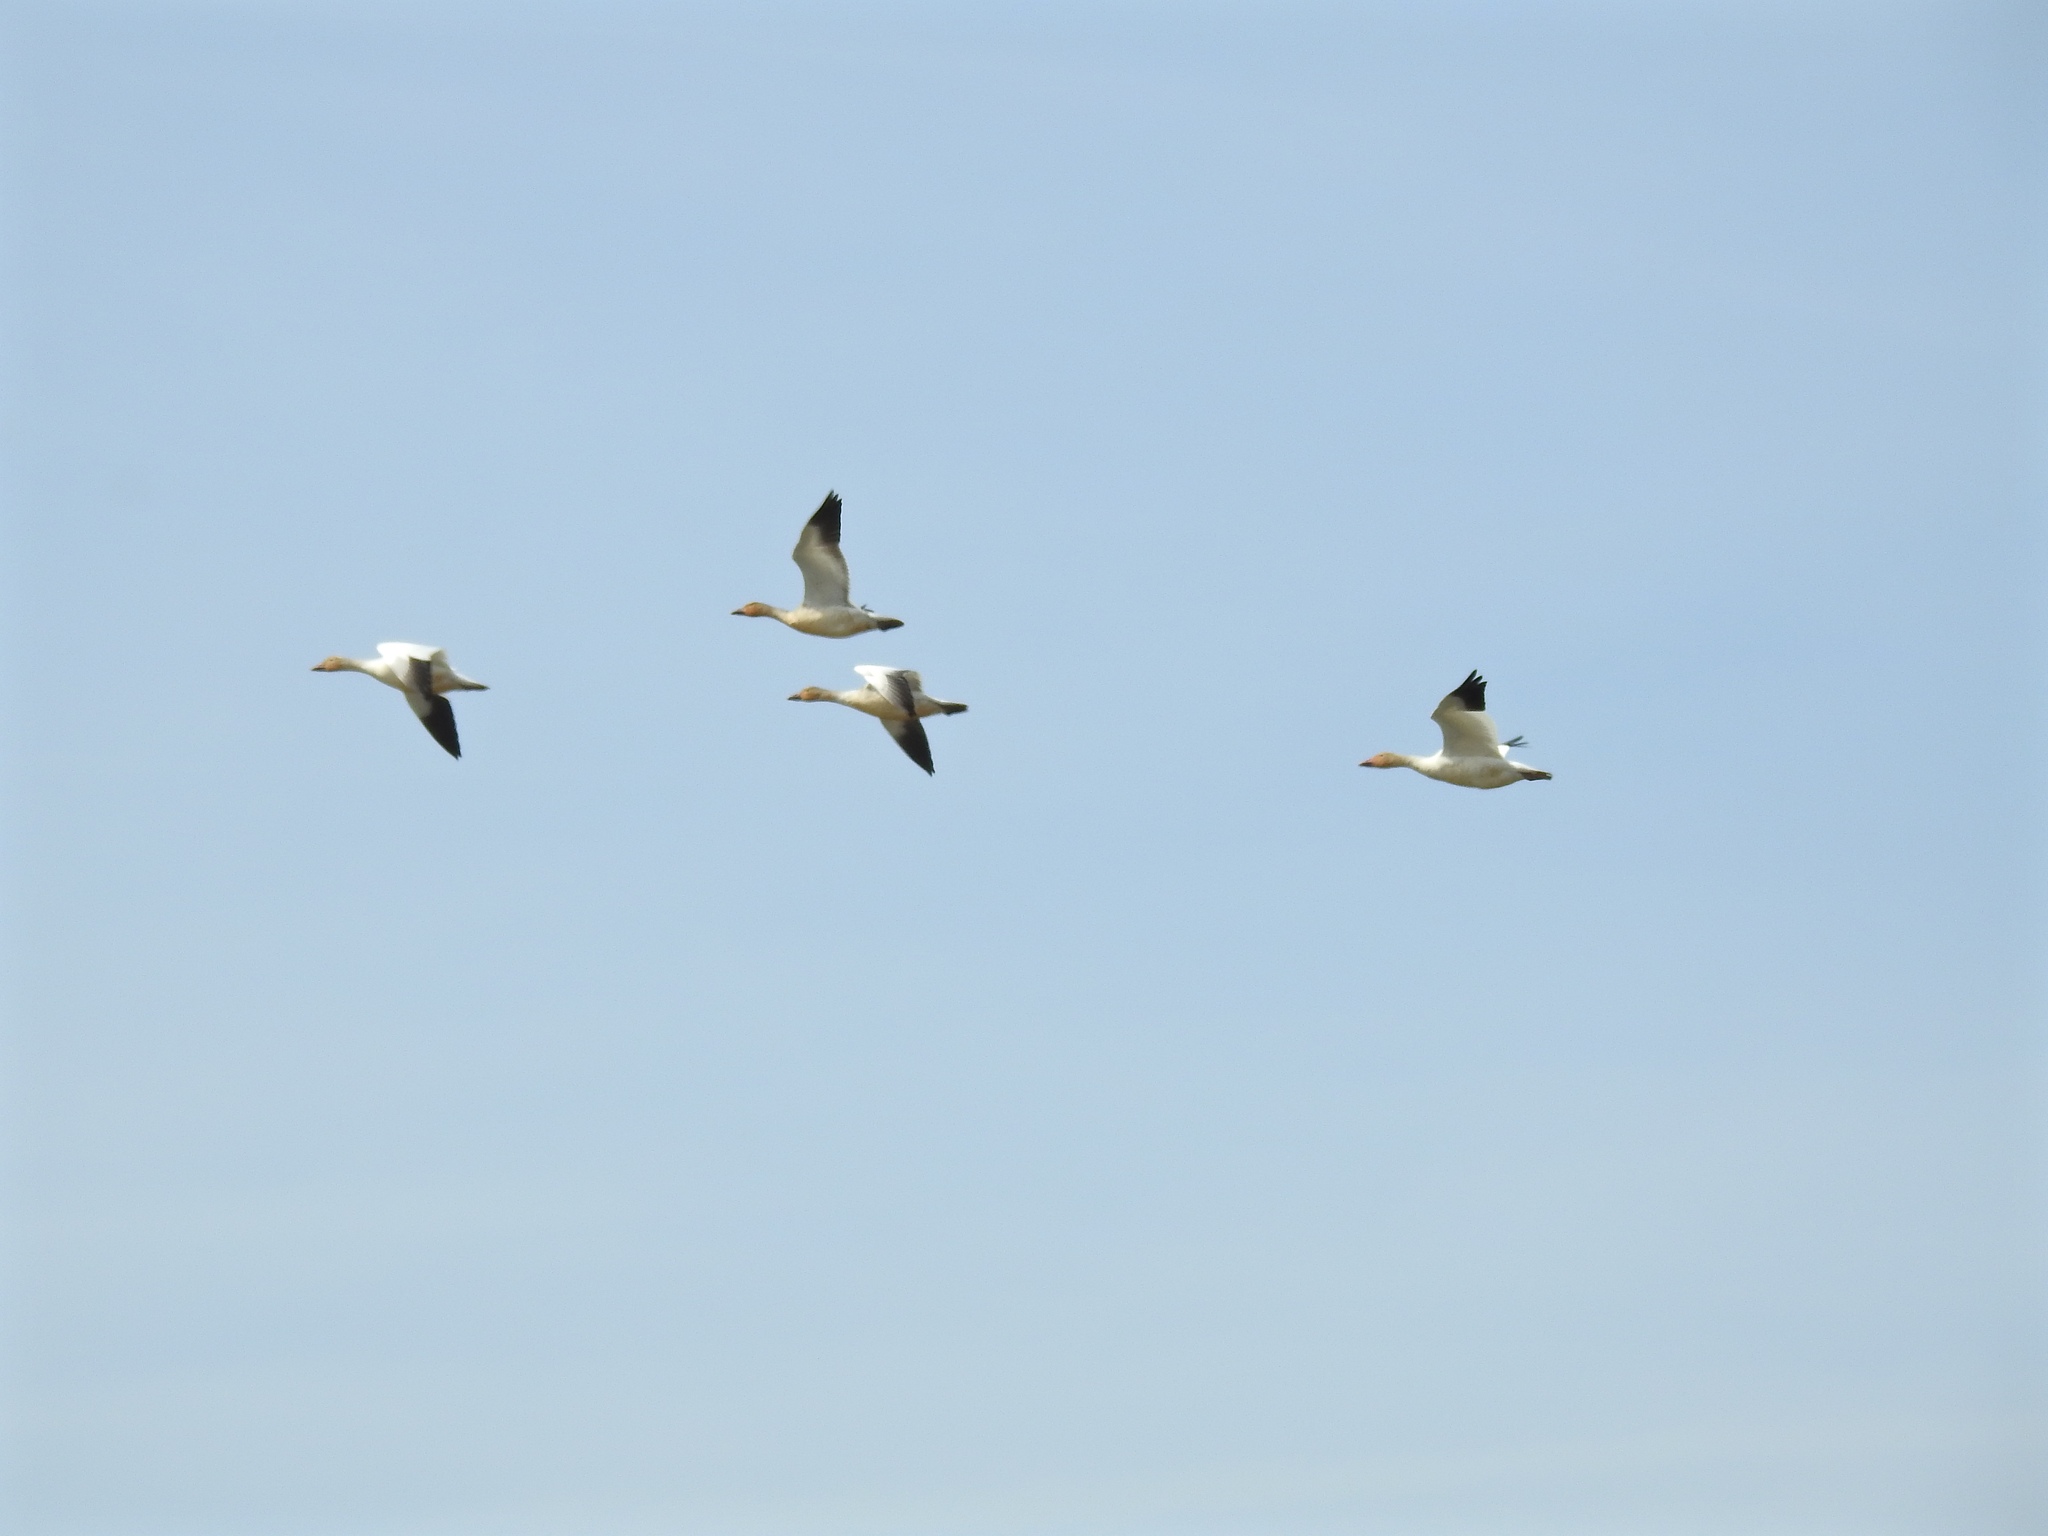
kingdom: Animalia
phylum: Chordata
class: Aves
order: Anseriformes
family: Anatidae
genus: Anser
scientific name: Anser caerulescens
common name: Snow goose
